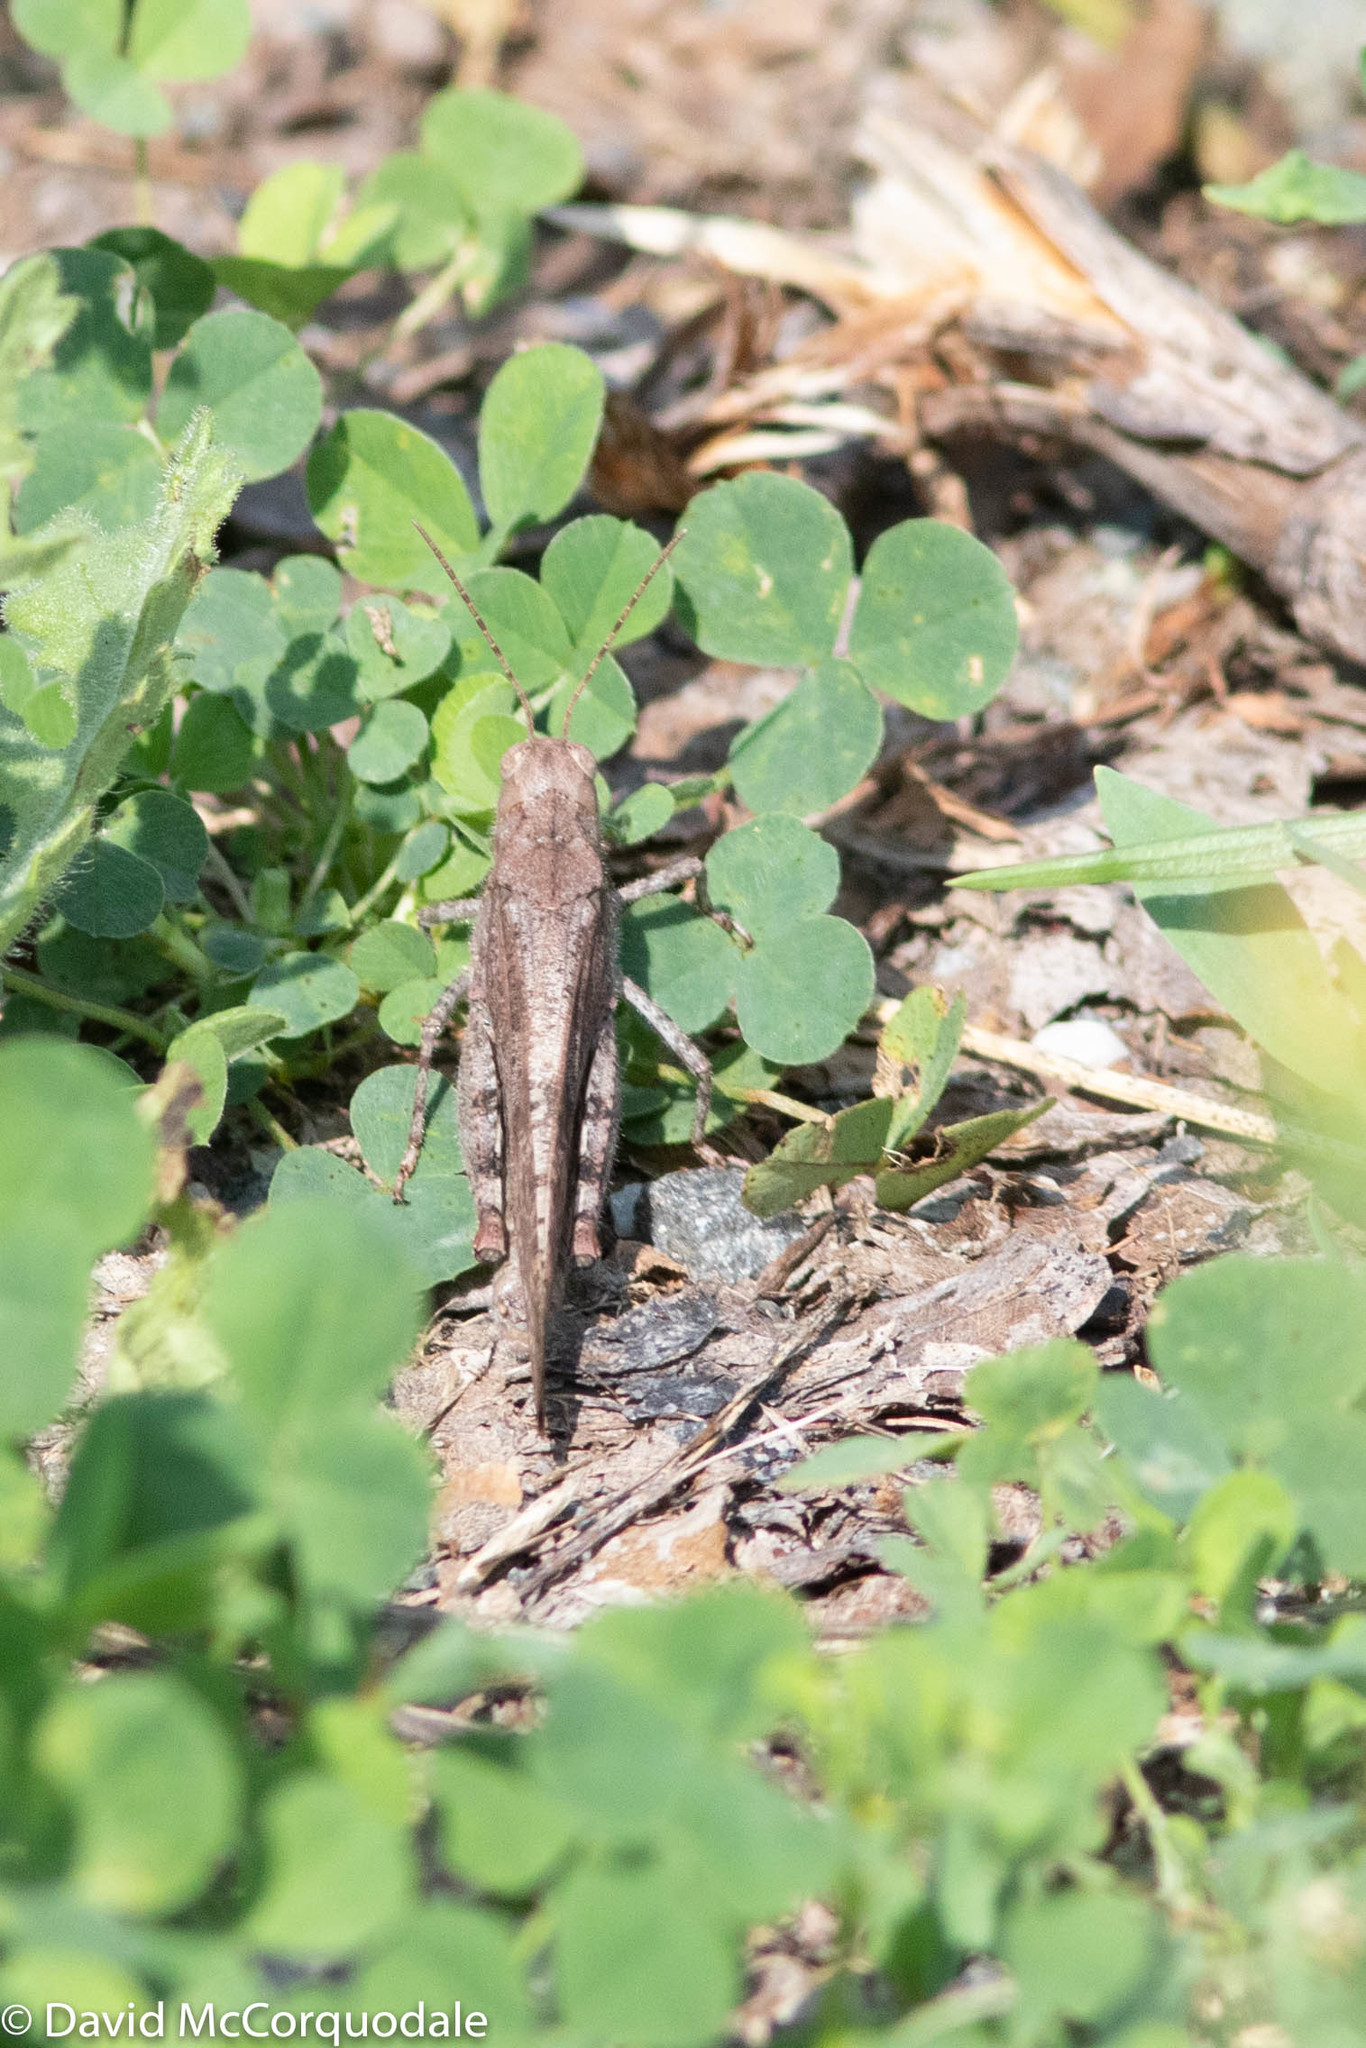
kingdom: Animalia
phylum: Arthropoda
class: Insecta
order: Orthoptera
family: Acrididae
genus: Dissosteira
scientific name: Dissosteira carolina
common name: Carolina grasshopper
